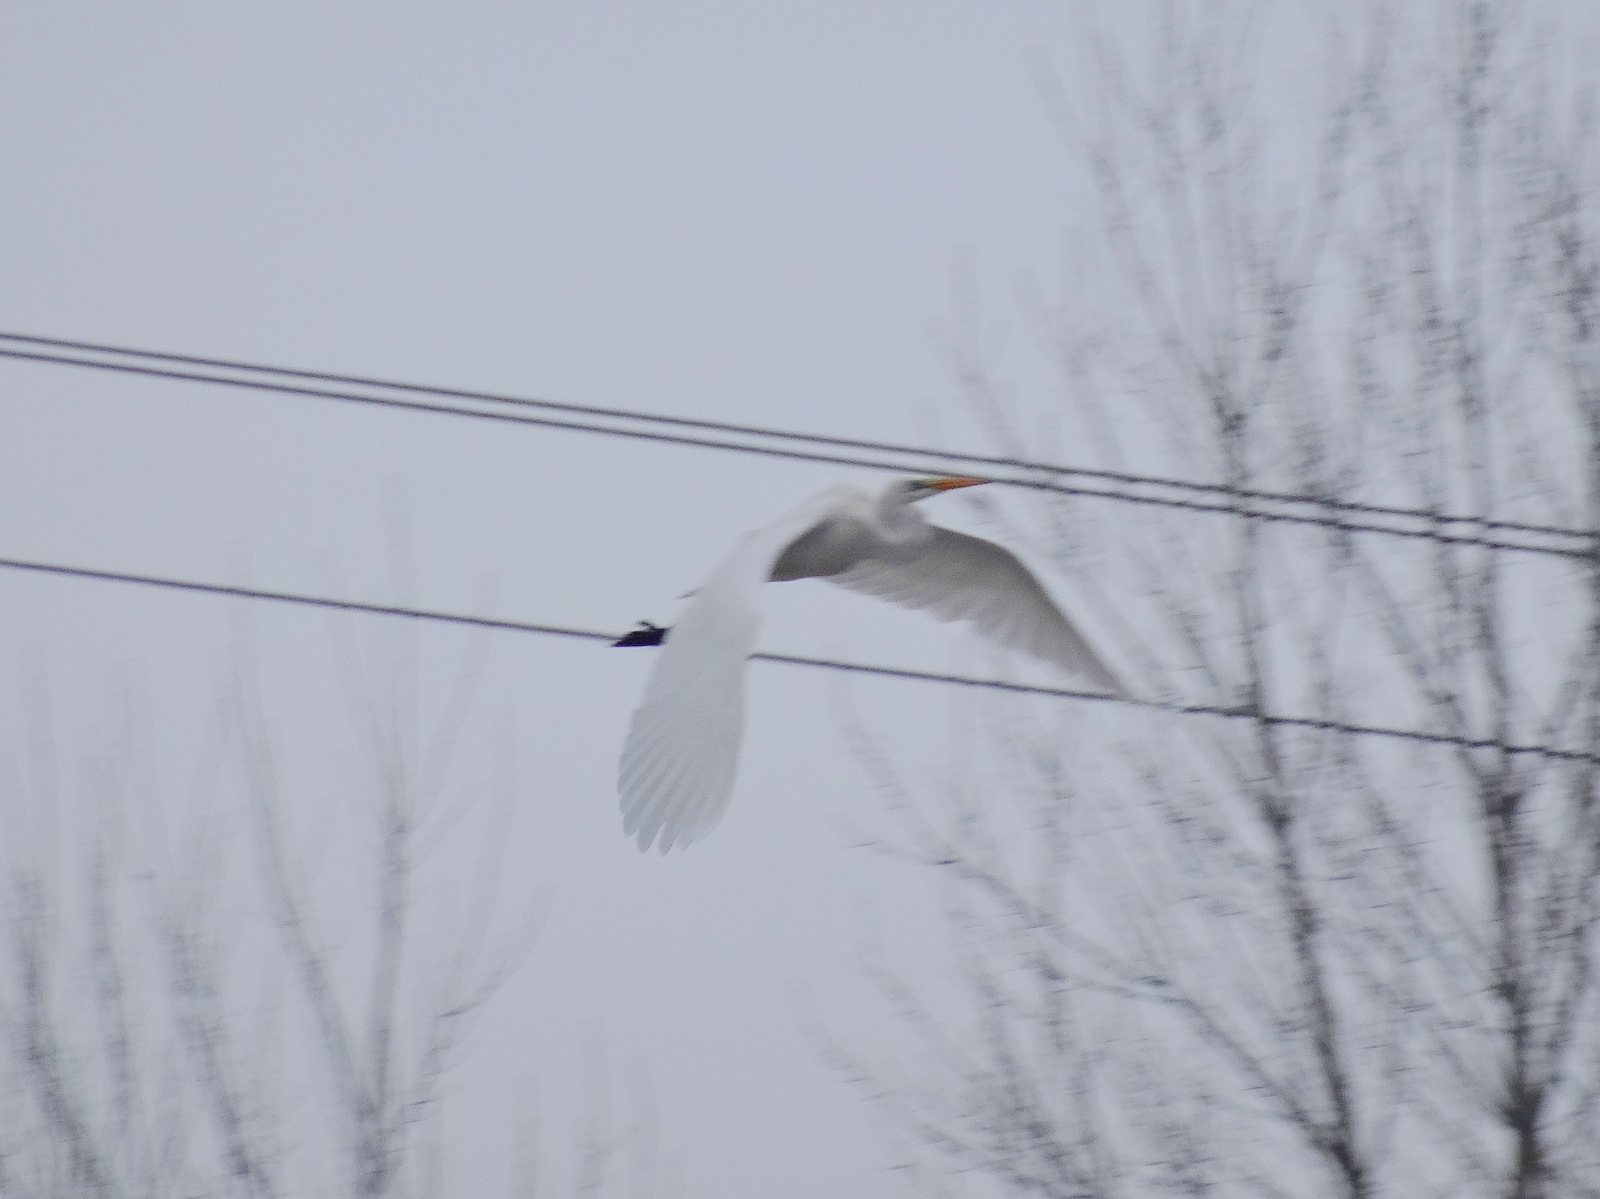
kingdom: Animalia
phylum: Chordata
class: Aves
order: Pelecaniformes
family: Ardeidae
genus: Ardea
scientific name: Ardea alba
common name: Great egret
